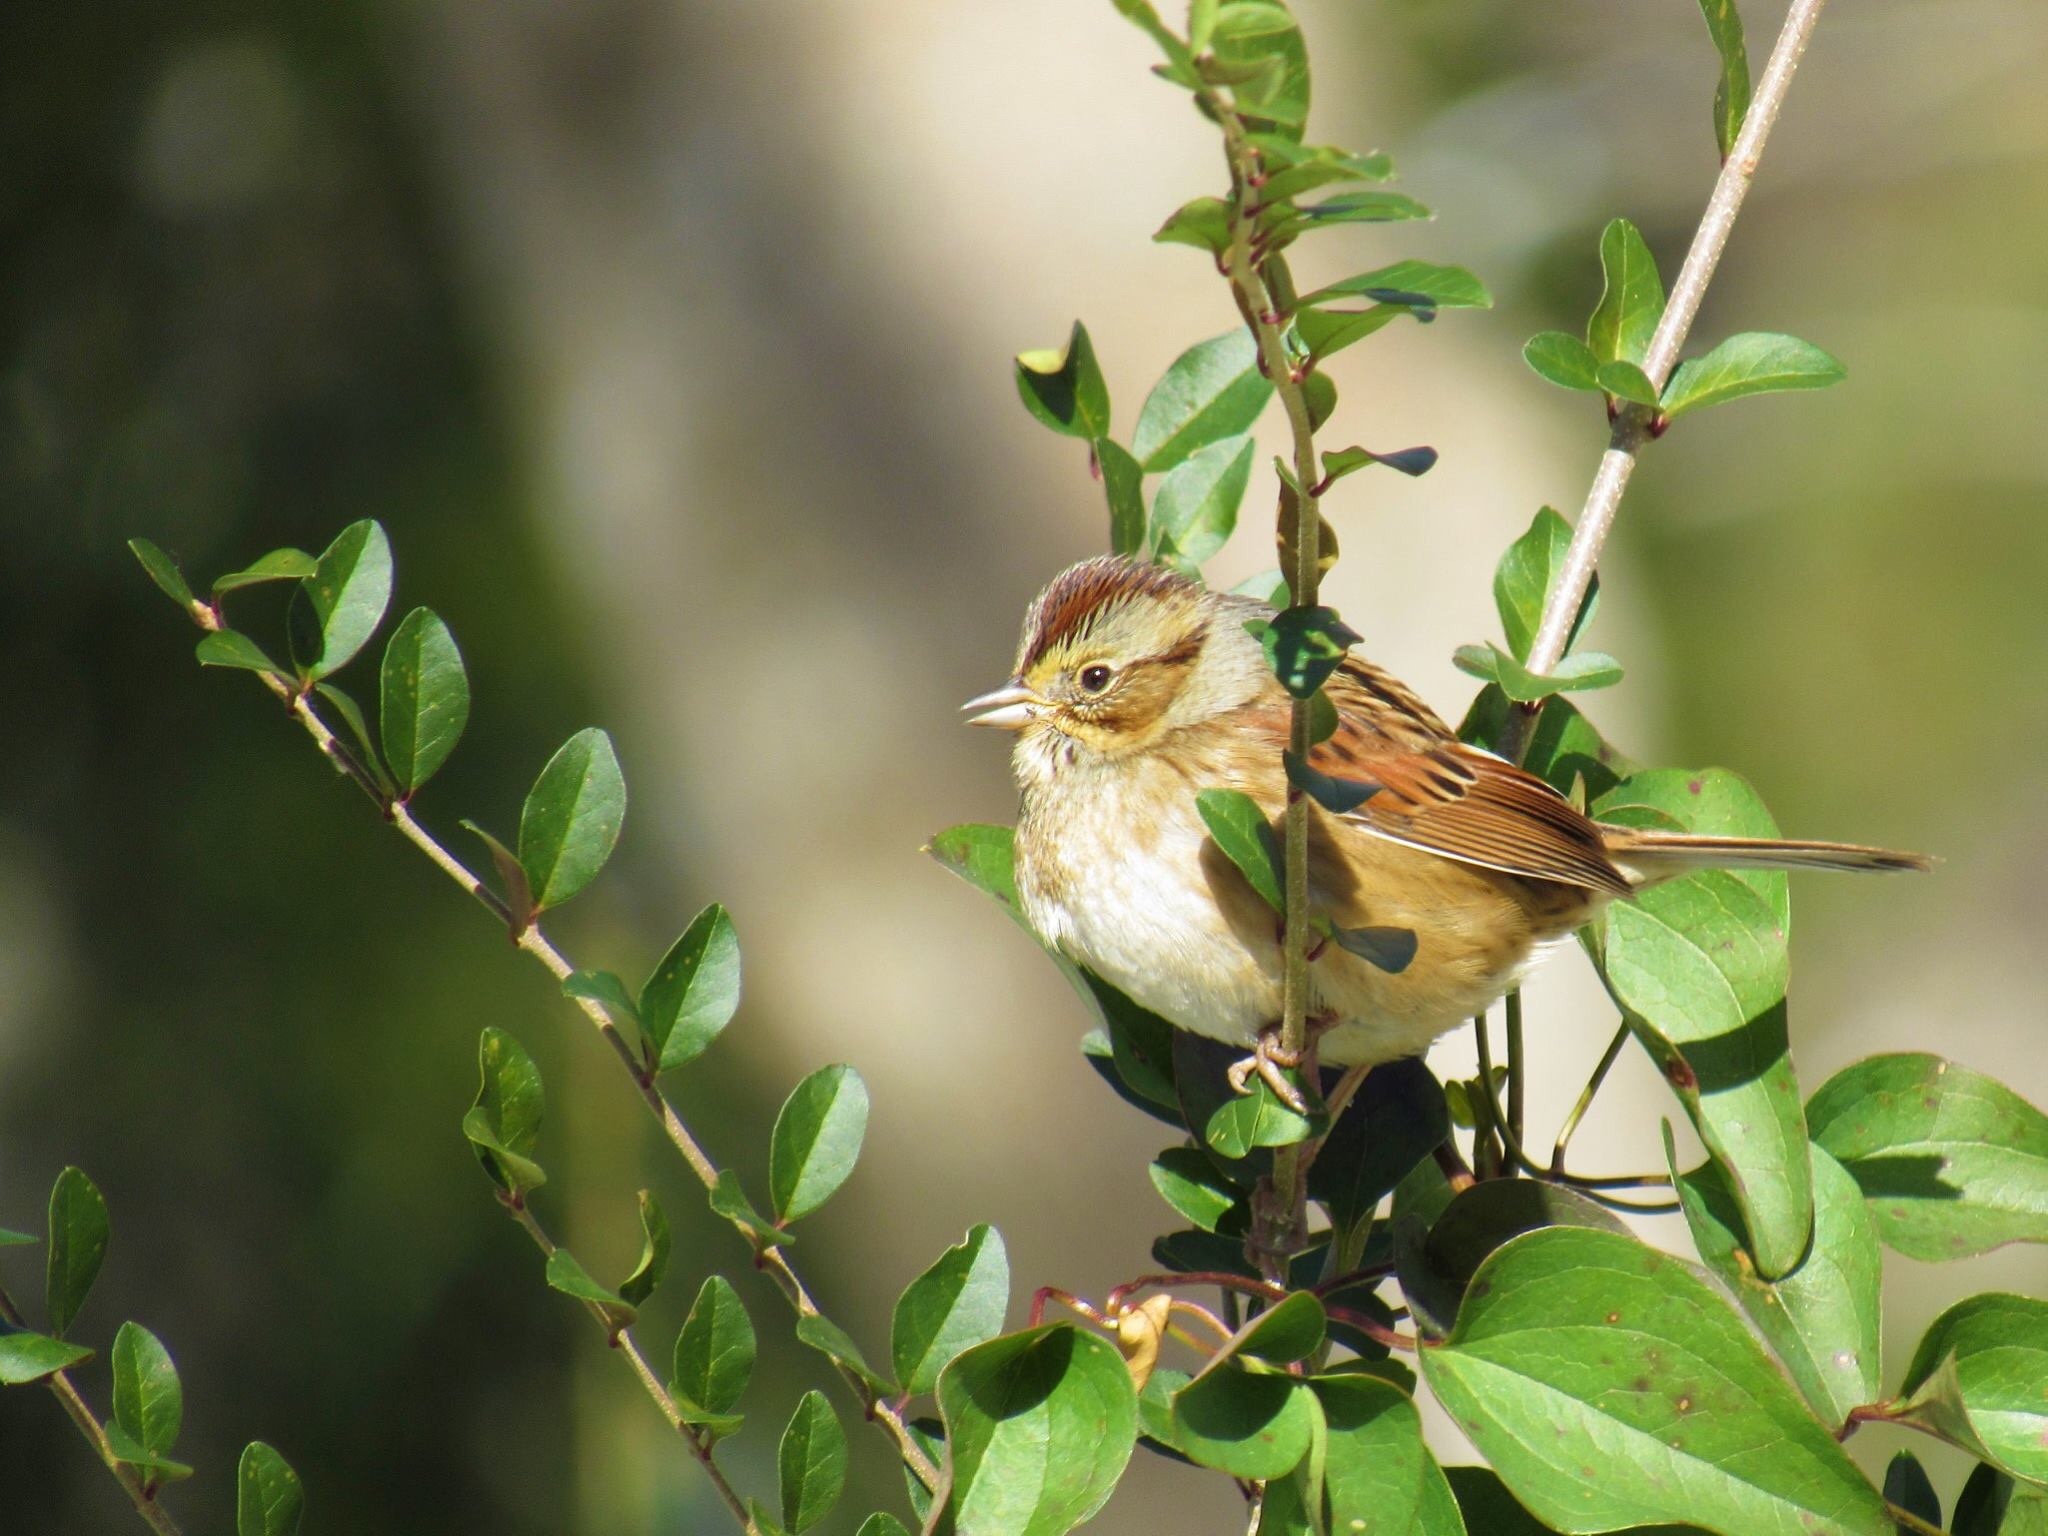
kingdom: Animalia
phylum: Chordata
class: Aves
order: Passeriformes
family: Passerellidae
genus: Melospiza
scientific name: Melospiza georgiana
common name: Swamp sparrow
